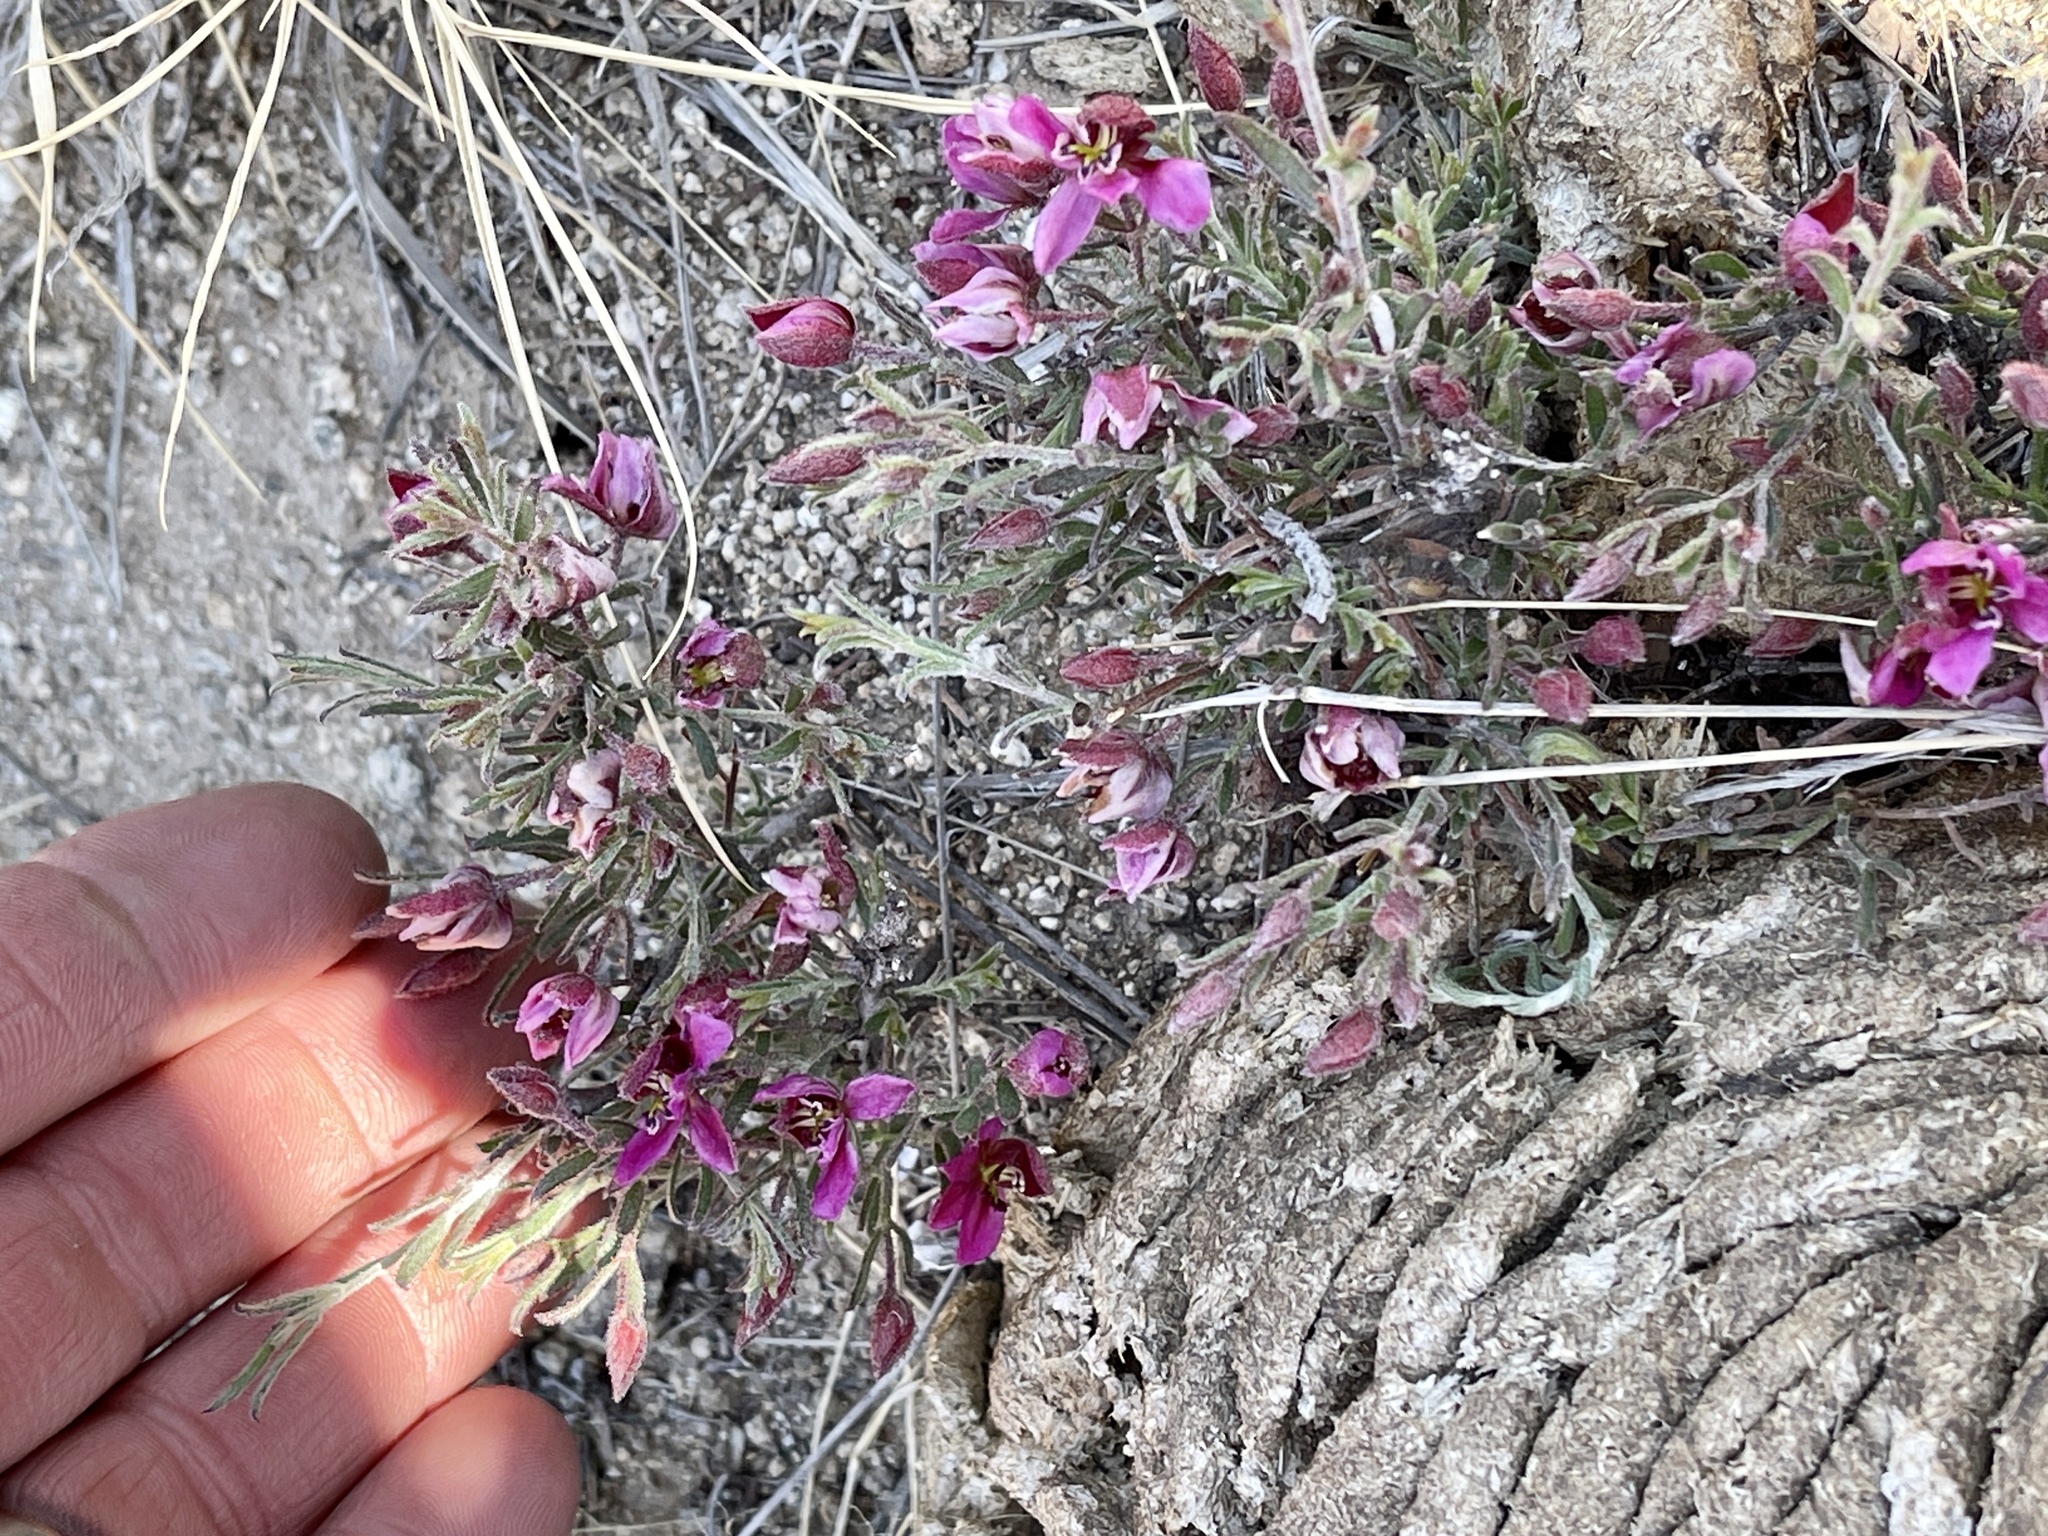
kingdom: Plantae
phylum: Tracheophyta
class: Magnoliopsida
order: Zygophyllales
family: Krameriaceae
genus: Krameria
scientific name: Krameria erecta
